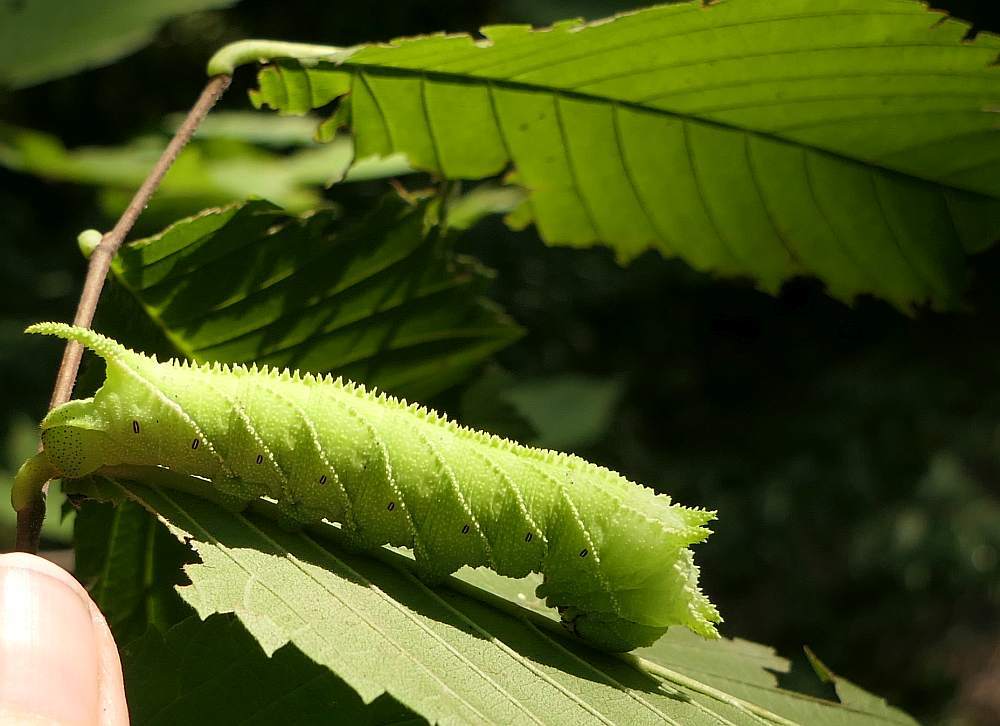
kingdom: Animalia
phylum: Arthropoda
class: Insecta
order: Lepidoptera
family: Sphingidae
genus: Ceratomia
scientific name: Ceratomia amyntor
